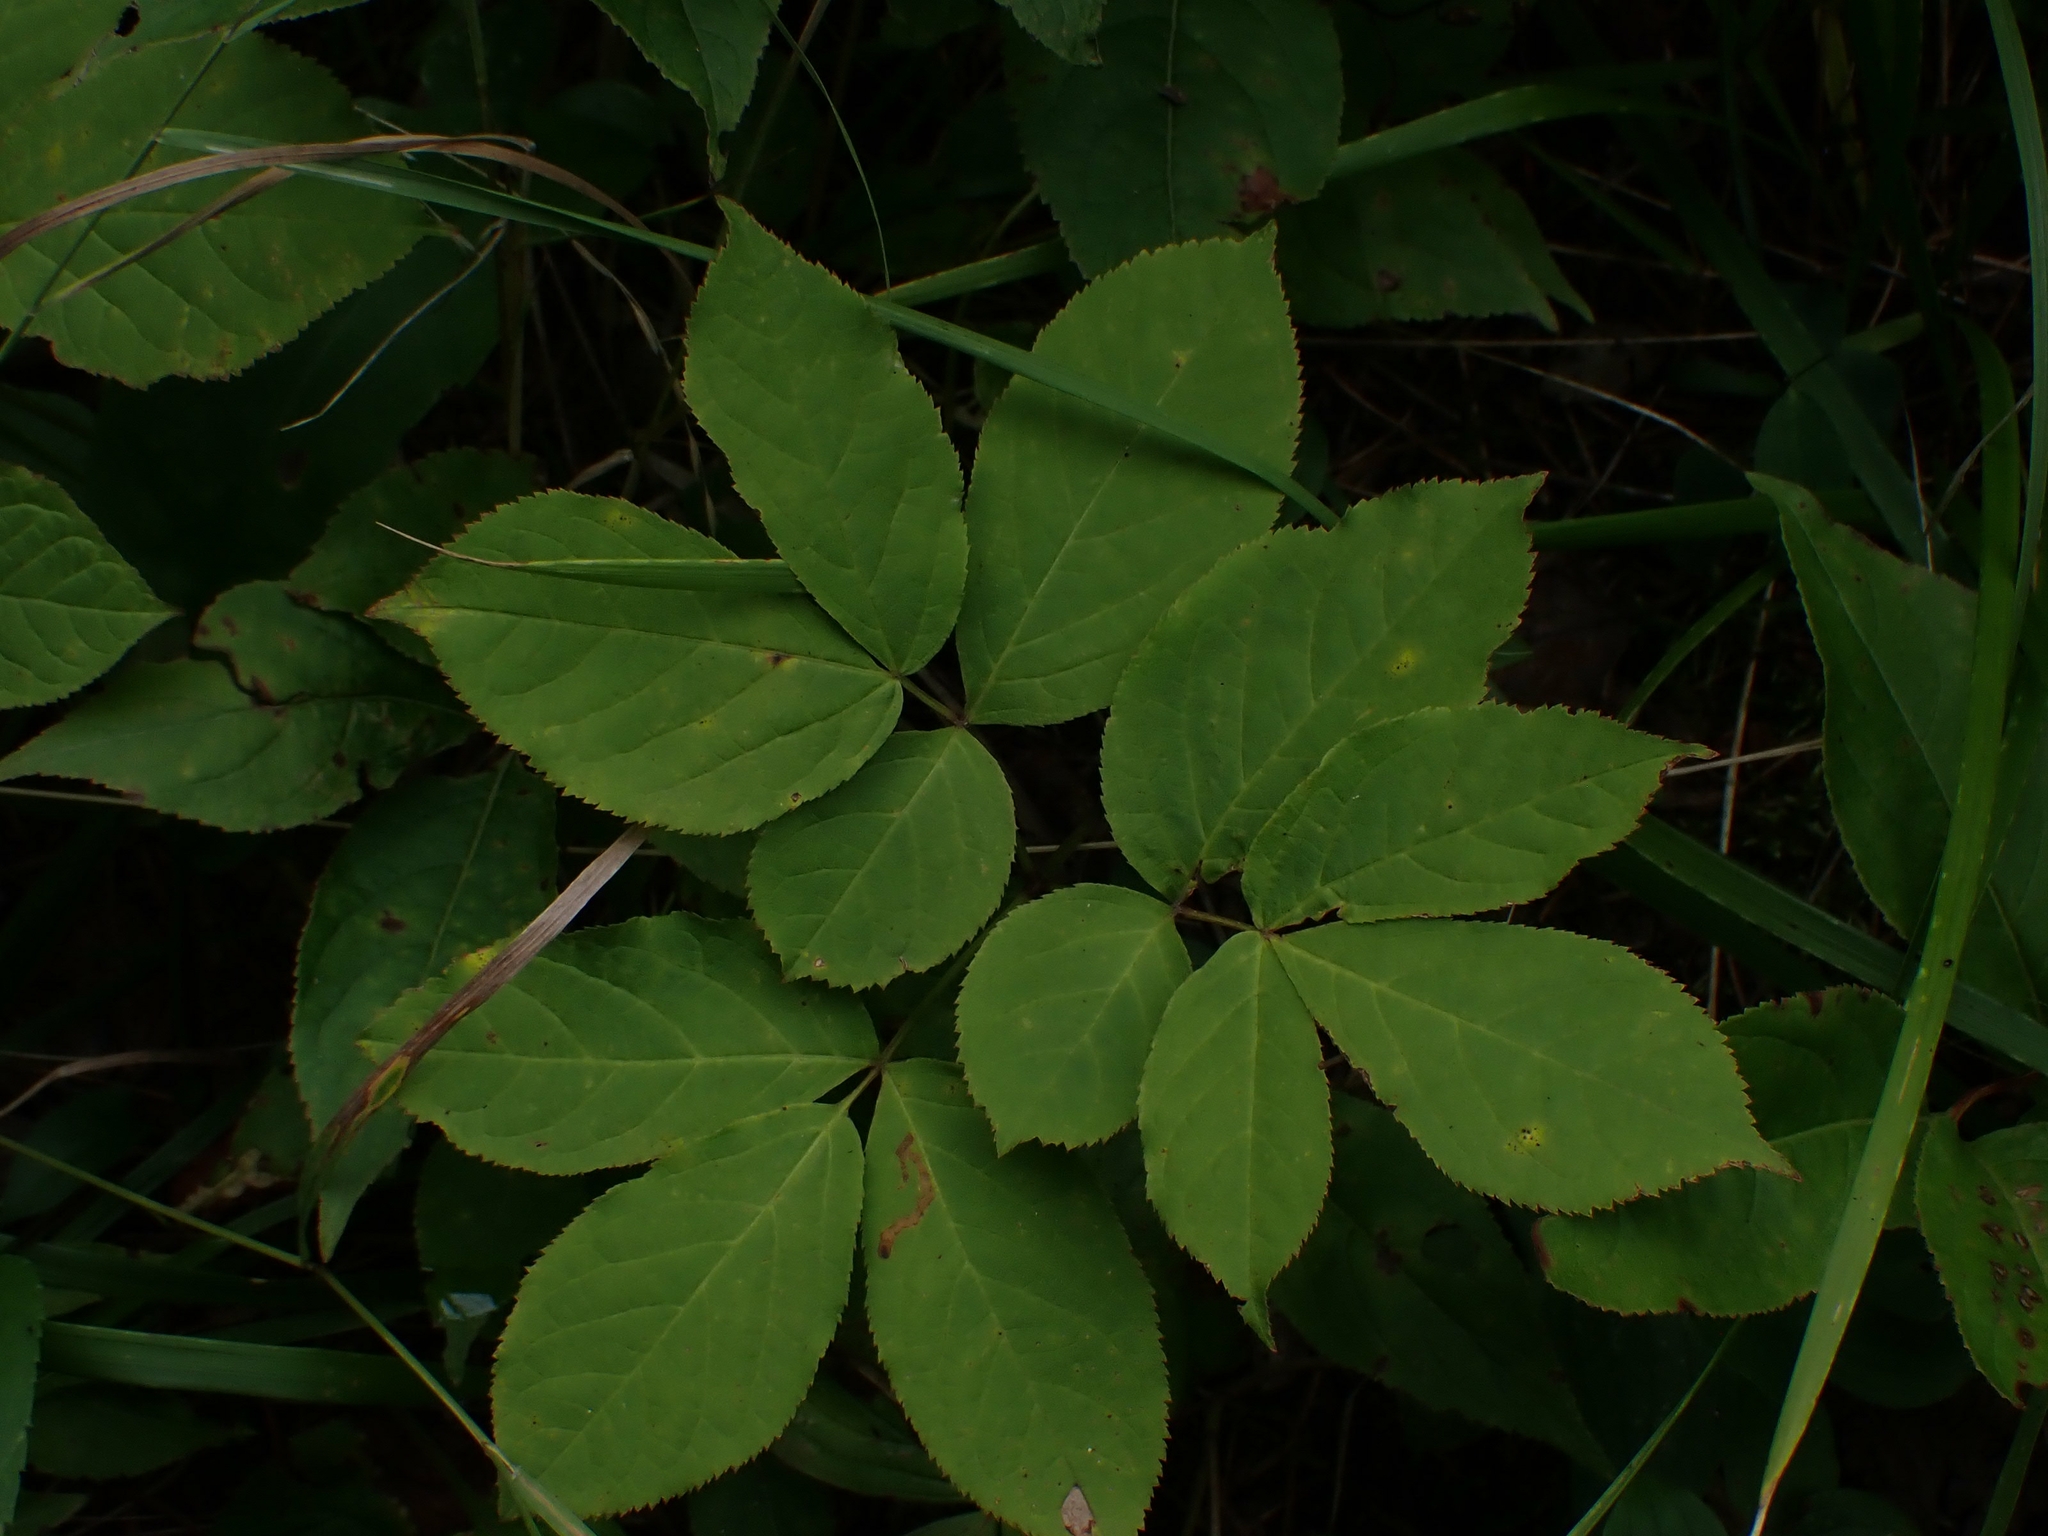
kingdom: Plantae
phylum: Tracheophyta
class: Magnoliopsida
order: Apiales
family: Araliaceae
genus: Aralia
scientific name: Aralia nudicaulis
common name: Wild sarsaparilla
